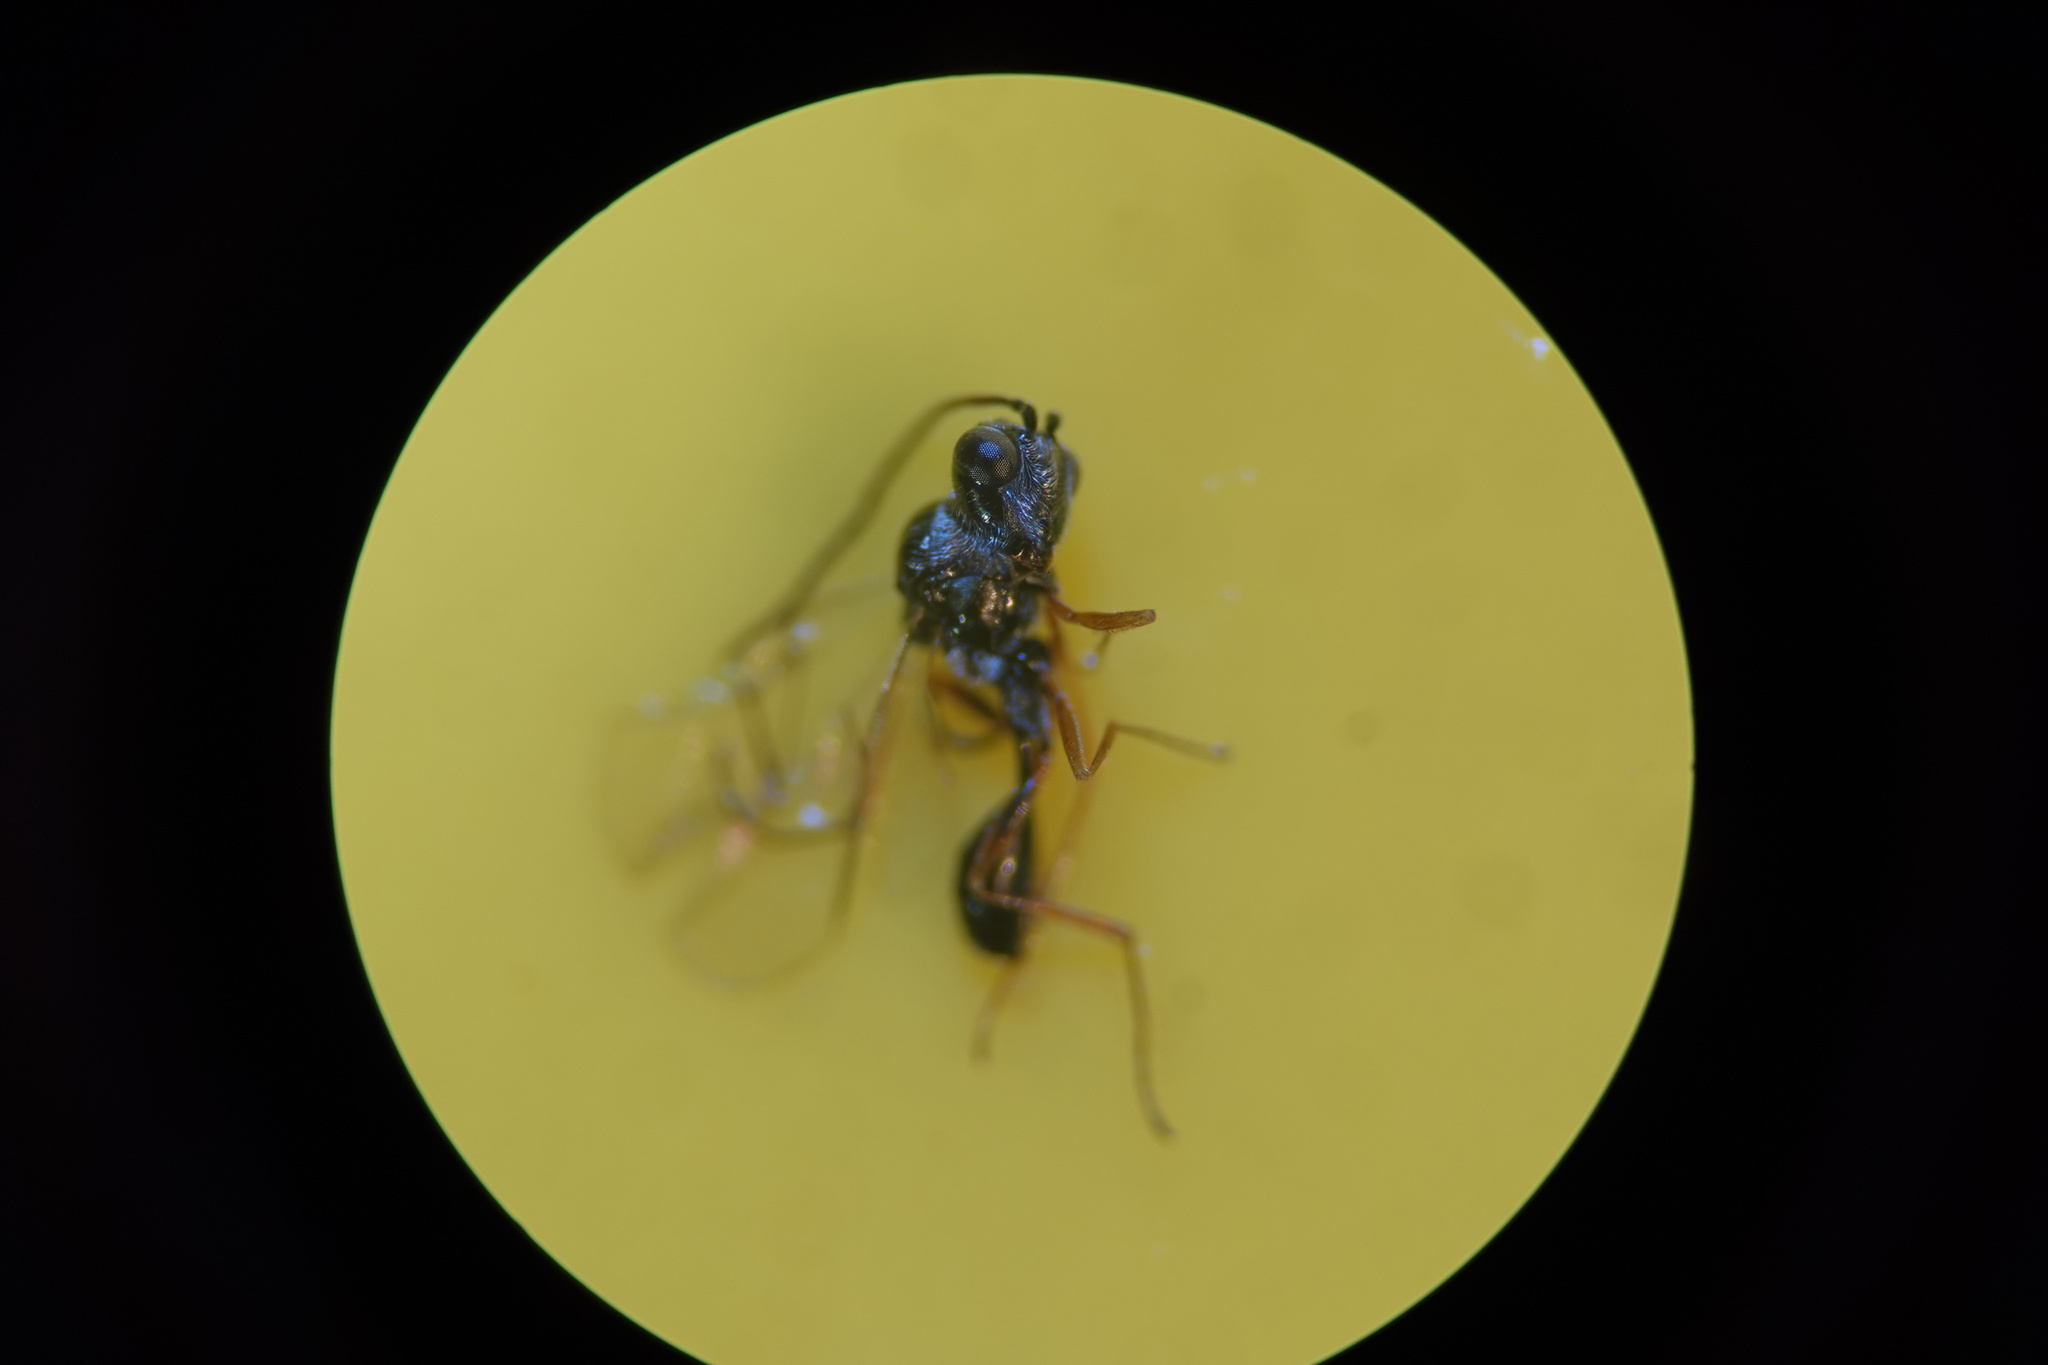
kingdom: Animalia
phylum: Arthropoda
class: Insecta
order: Hymenoptera
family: Figitidae
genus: Anacharis
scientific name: Anacharis zealandica
